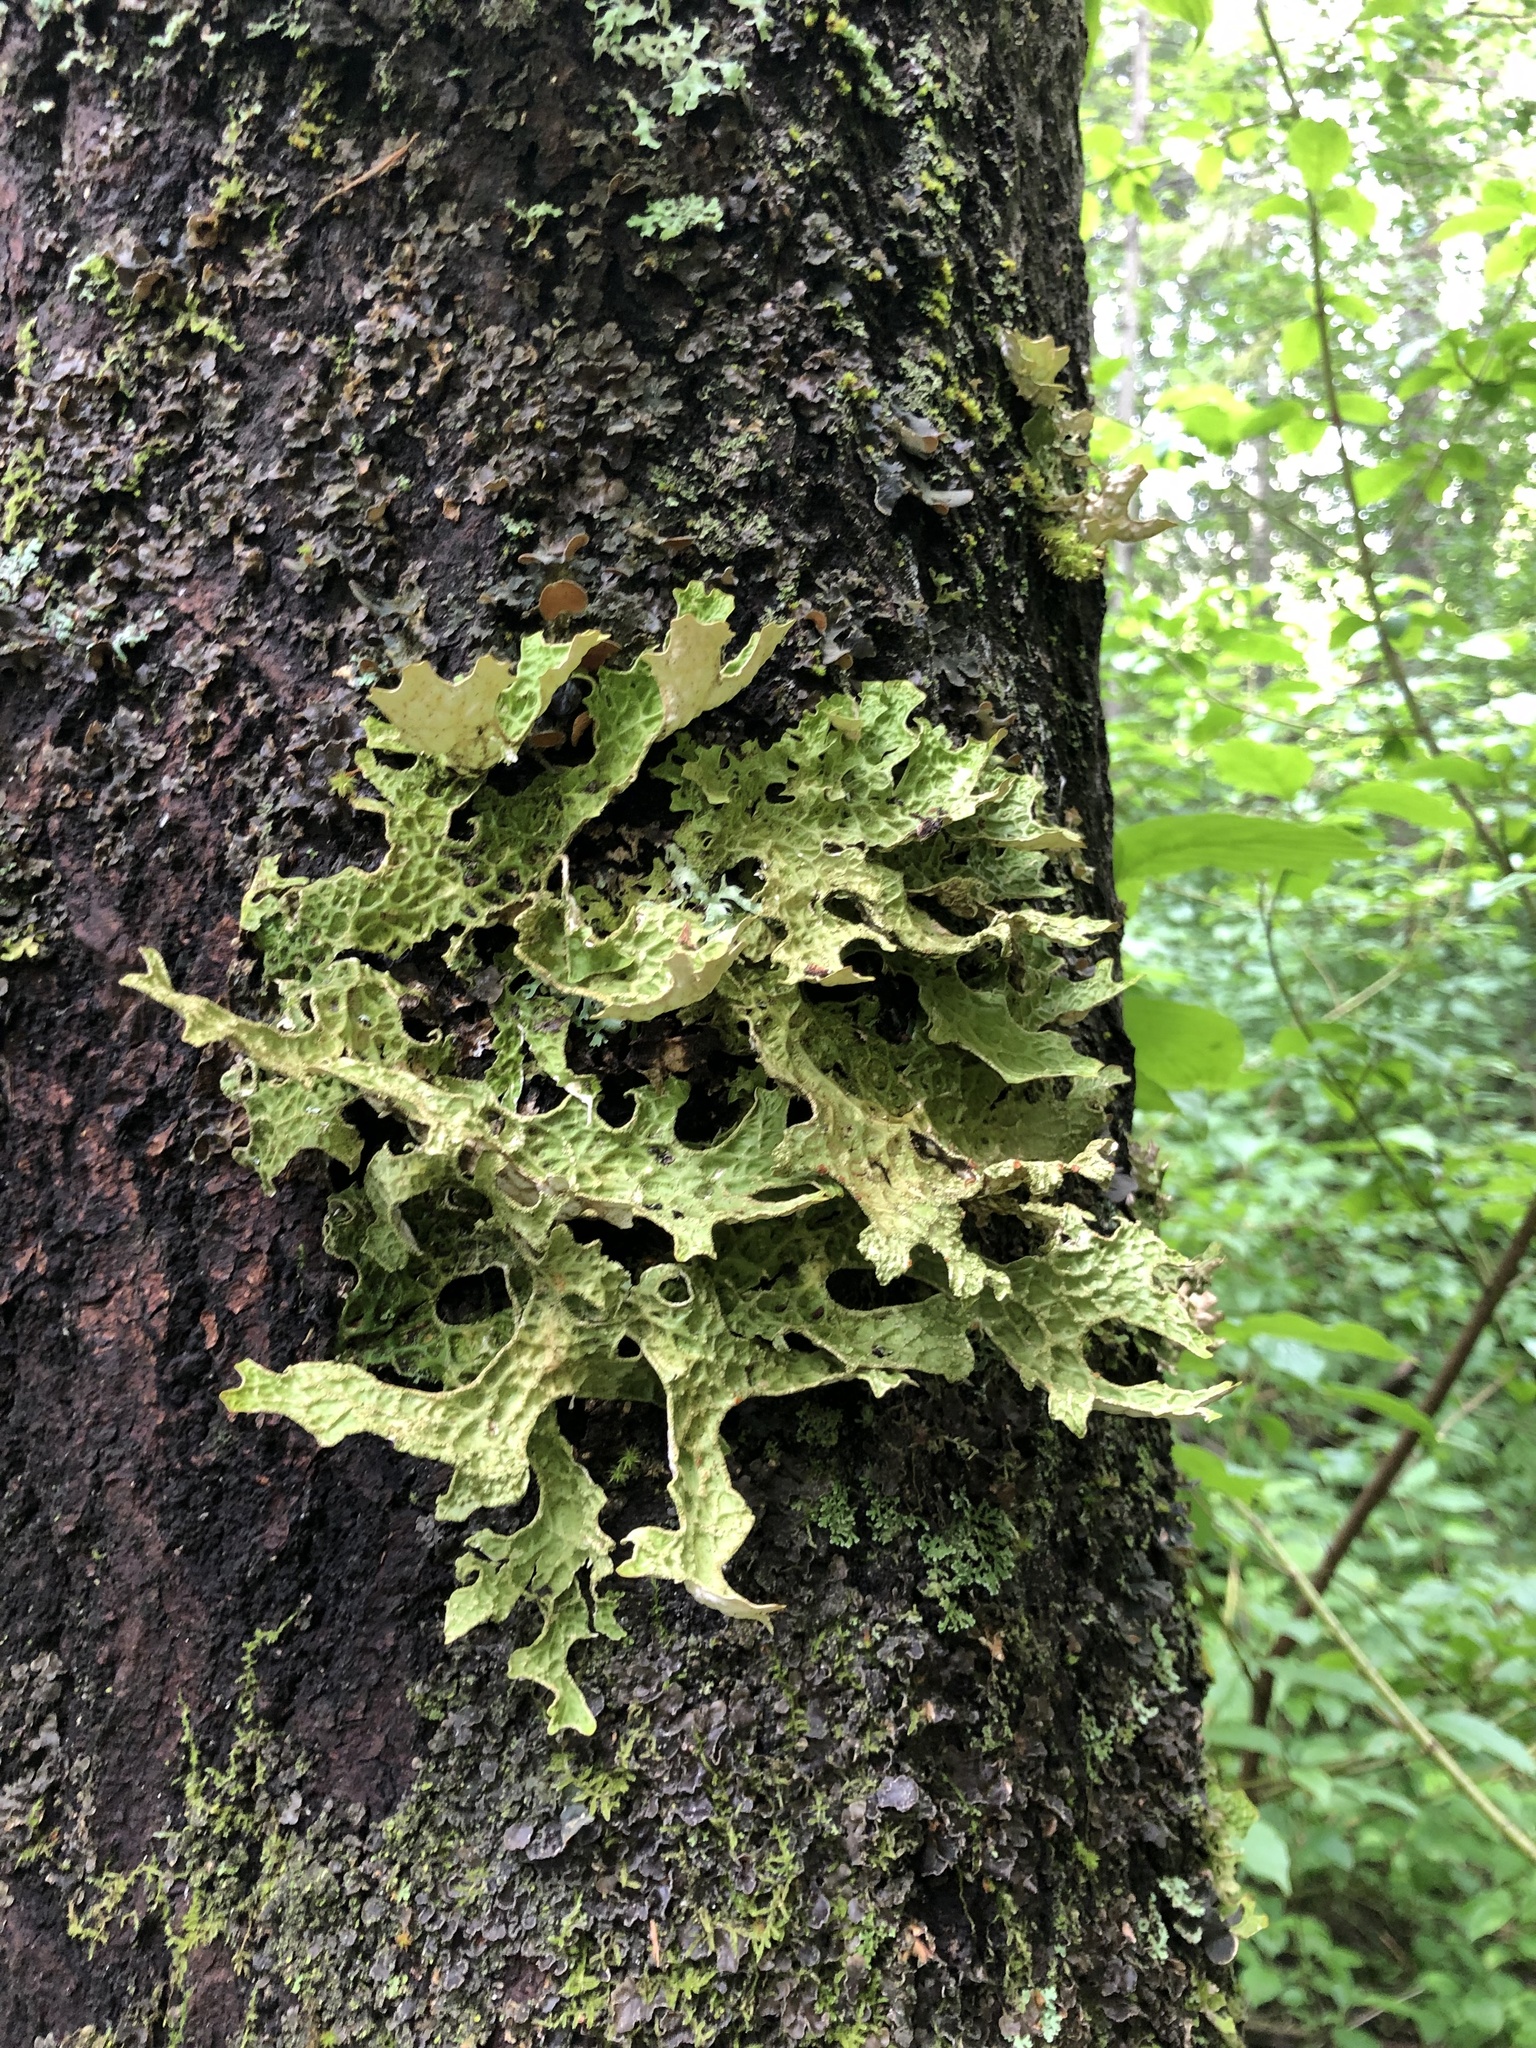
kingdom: Fungi
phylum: Ascomycota
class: Lecanoromycetes
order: Peltigerales
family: Lobariaceae
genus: Lobaria
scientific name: Lobaria pulmonaria
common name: Lungwort
